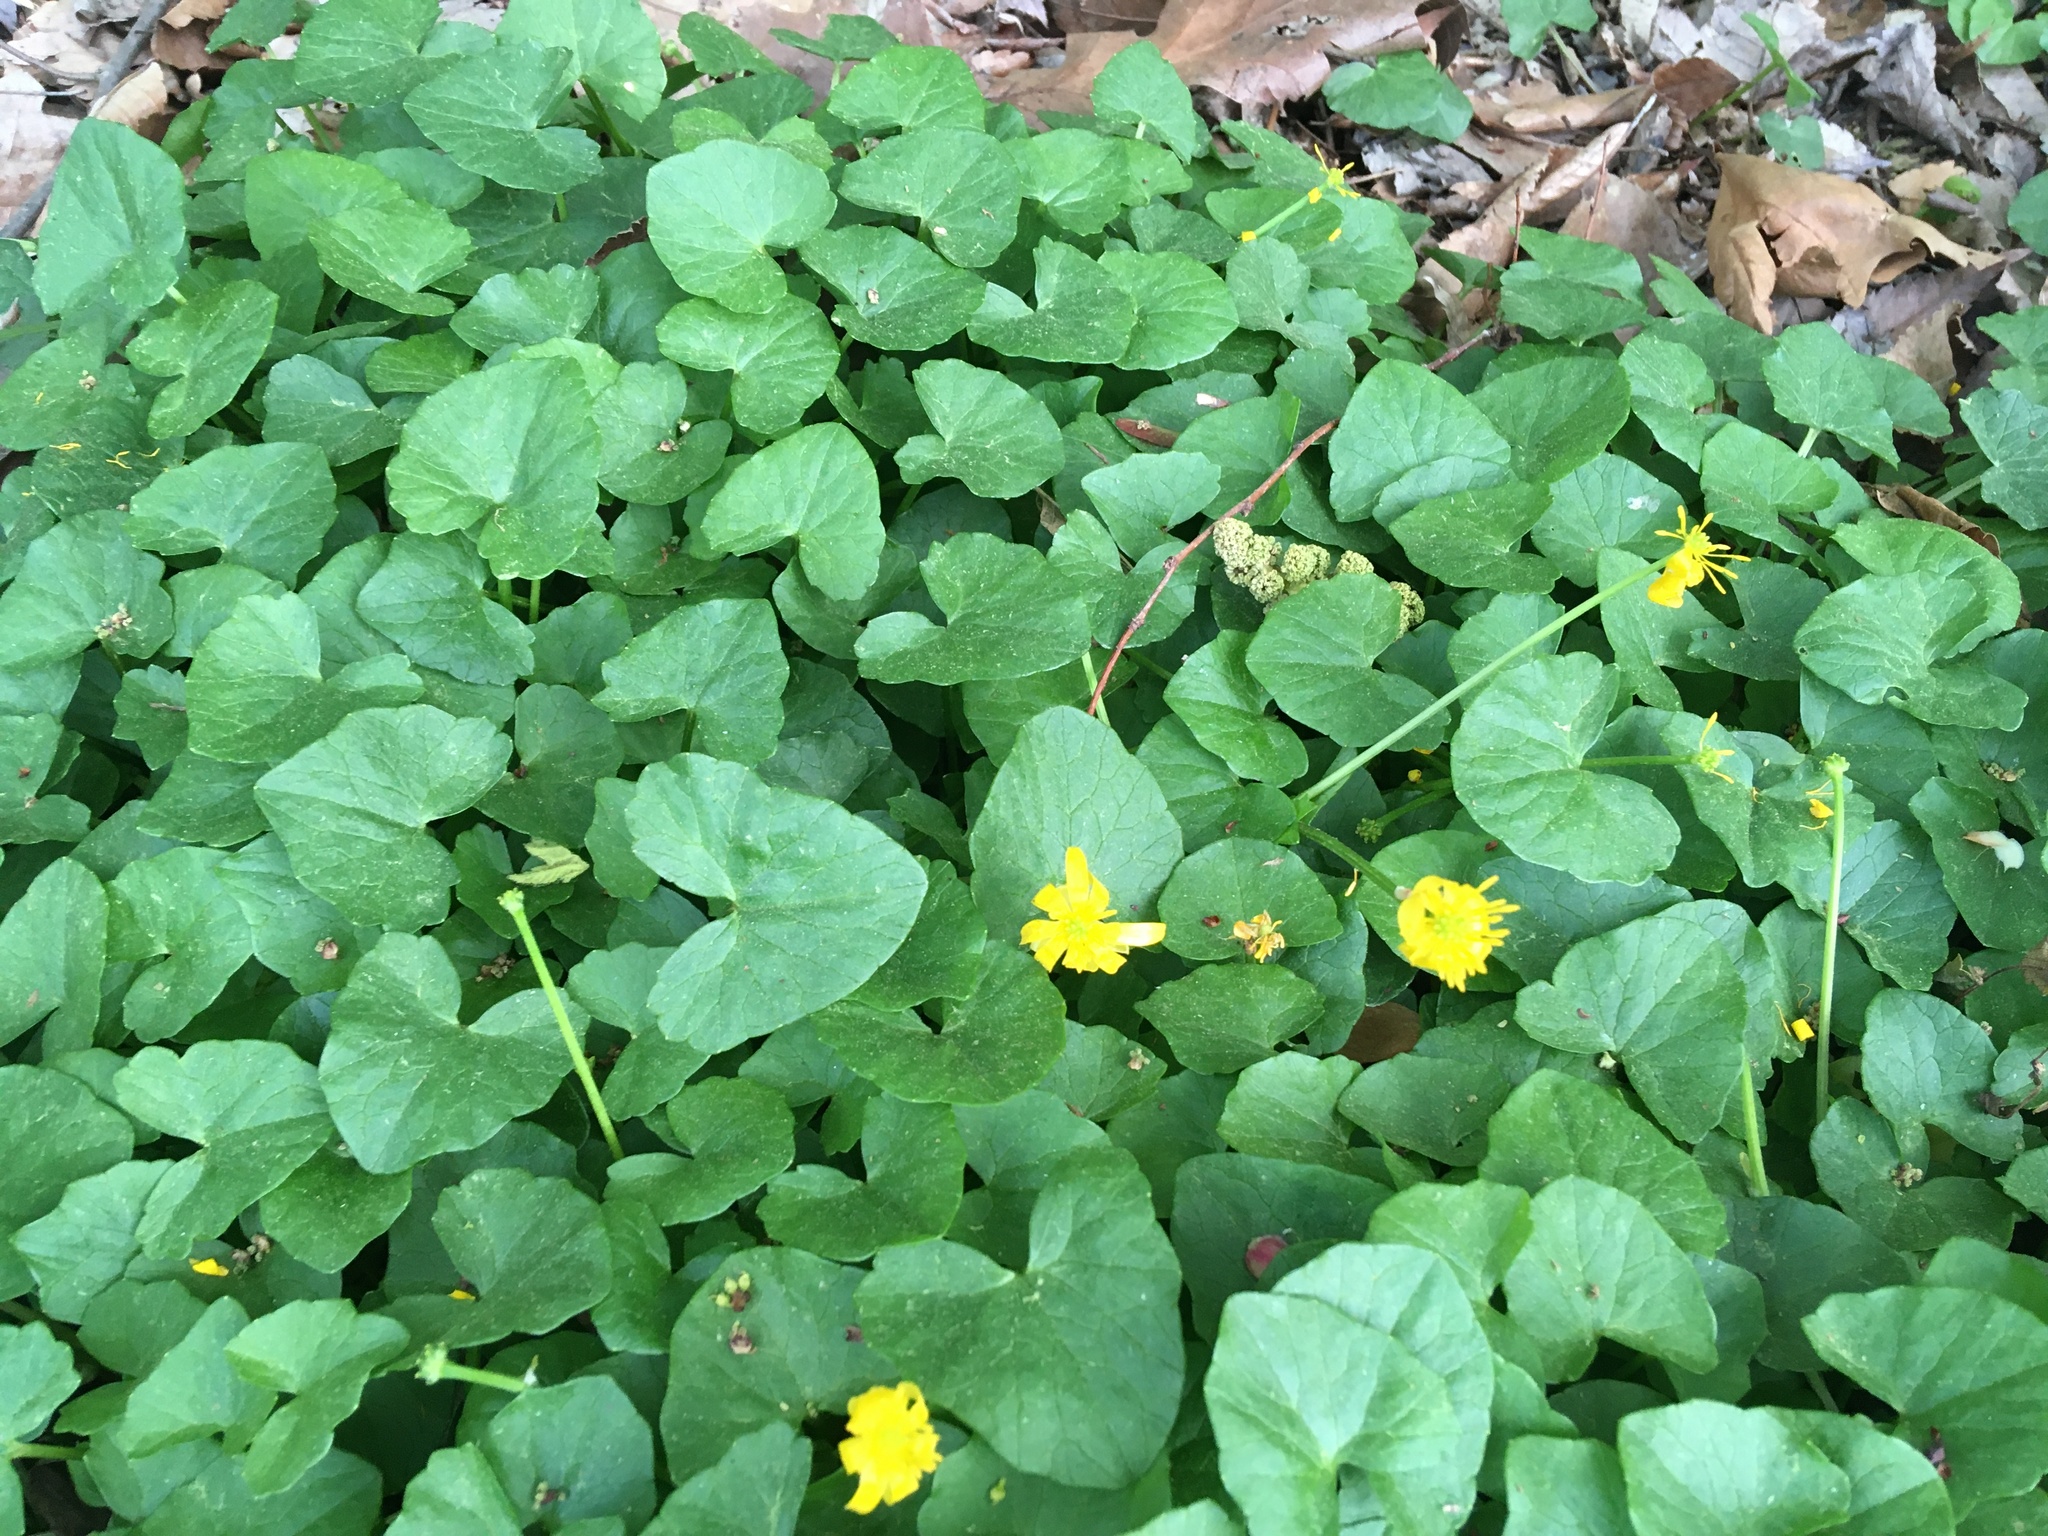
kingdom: Plantae
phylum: Tracheophyta
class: Magnoliopsida
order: Ranunculales
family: Ranunculaceae
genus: Ficaria
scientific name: Ficaria verna
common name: Lesser celandine
